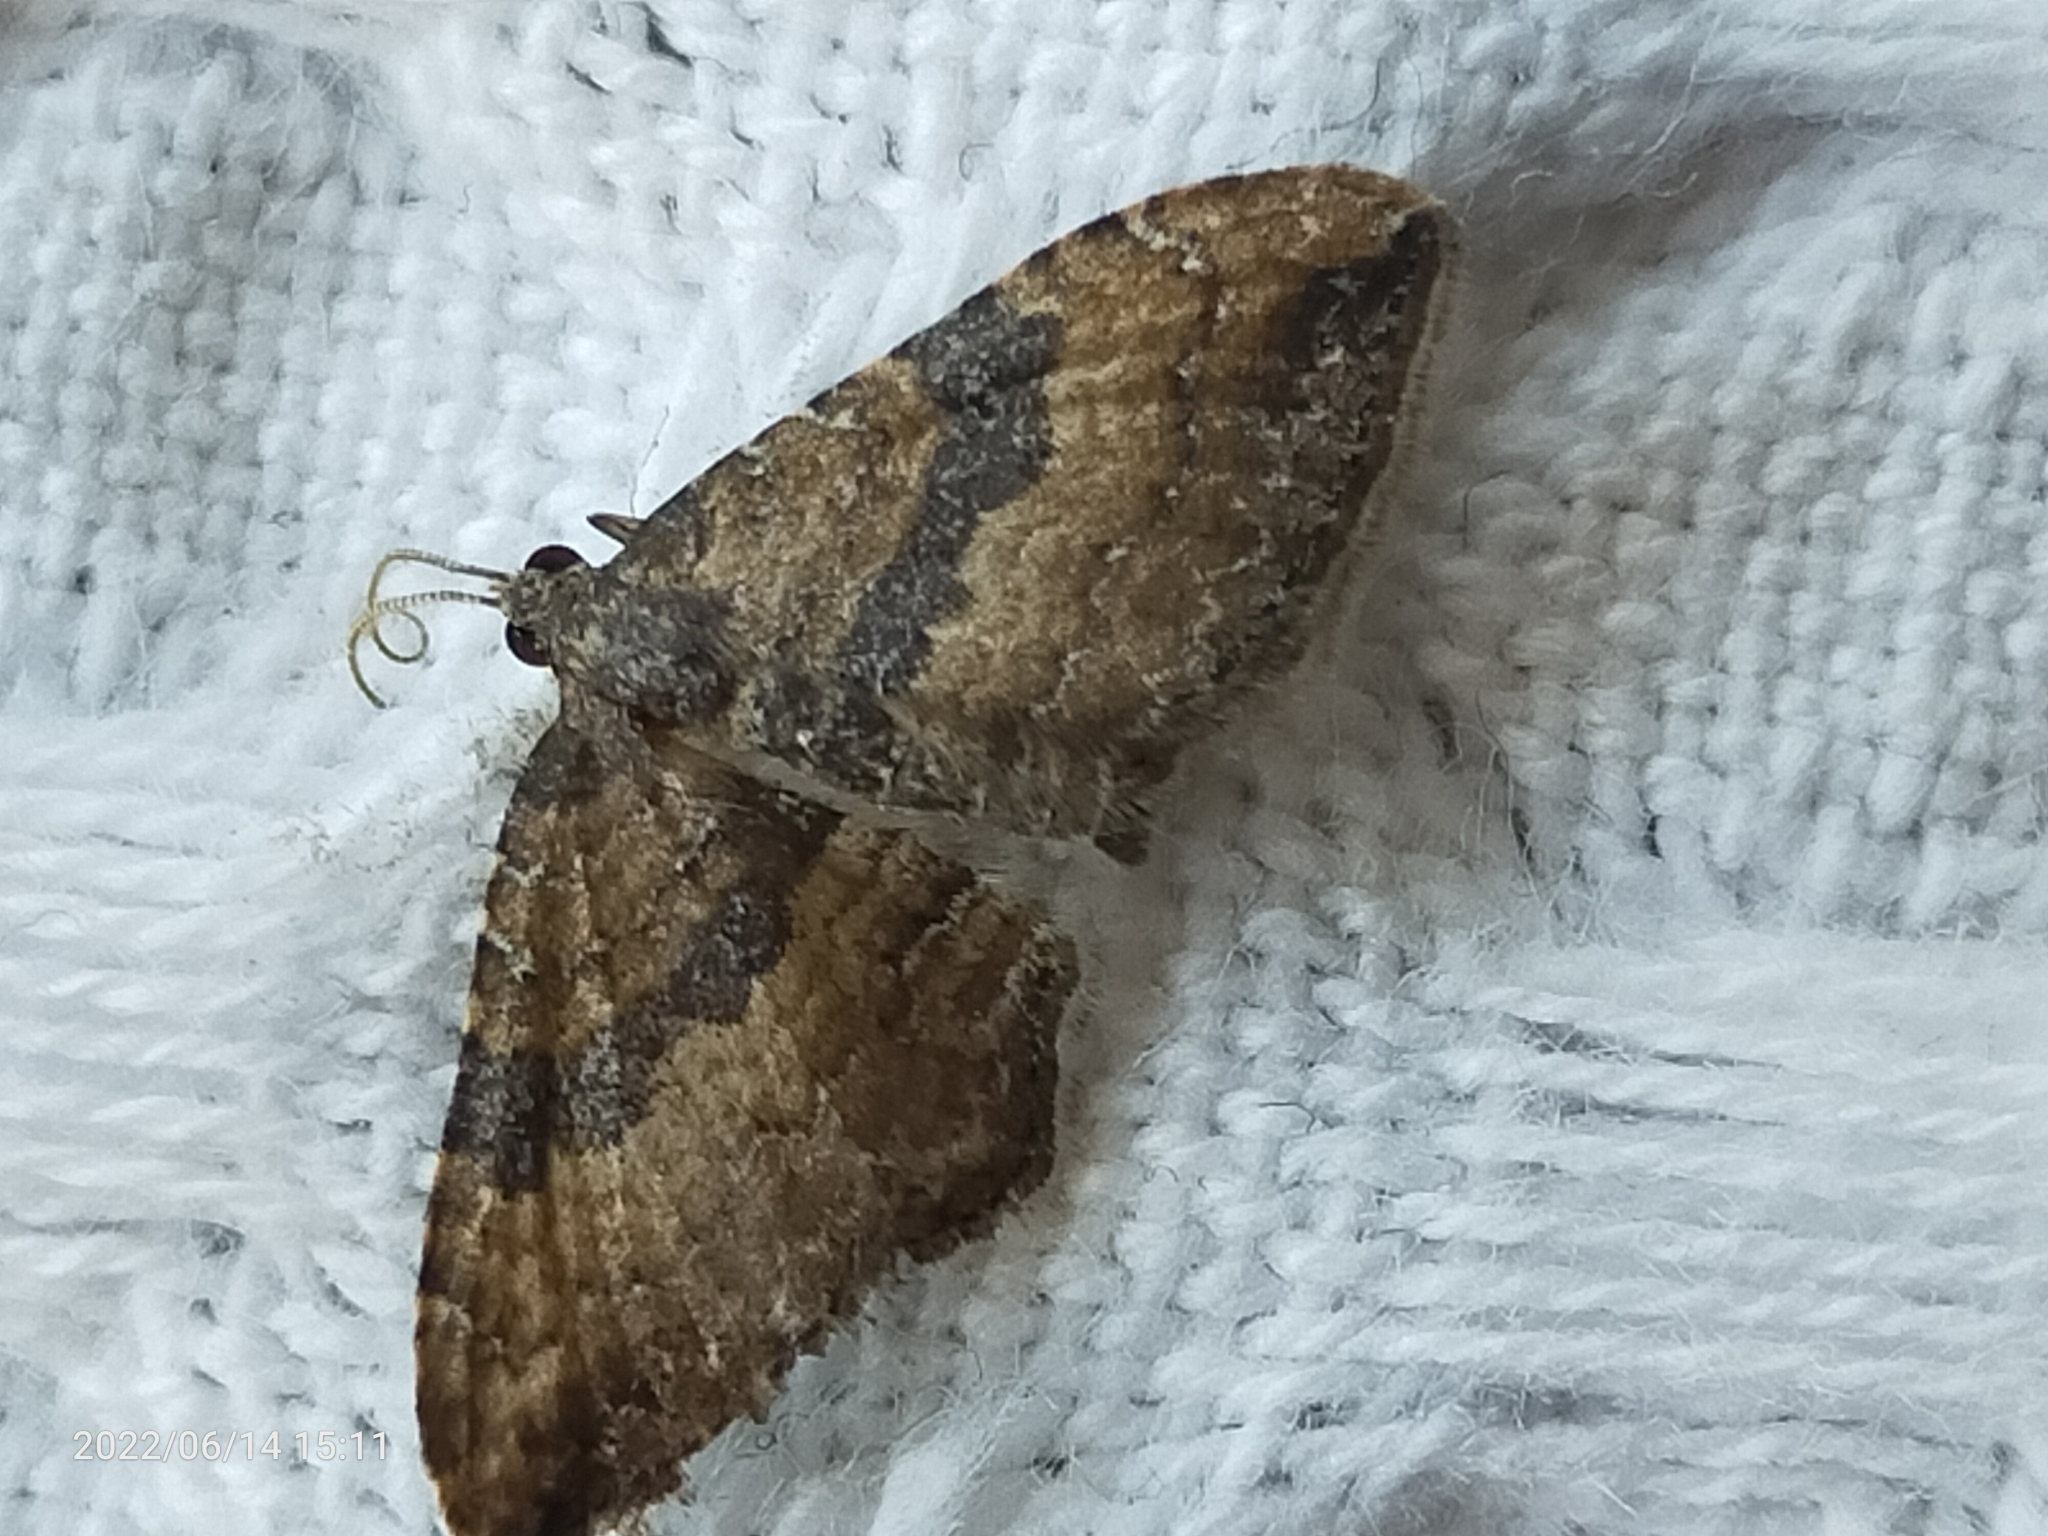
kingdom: Animalia
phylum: Arthropoda
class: Insecta
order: Lepidoptera
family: Geometridae
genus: Orthonama
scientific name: Orthonama obstipata
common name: The gem
